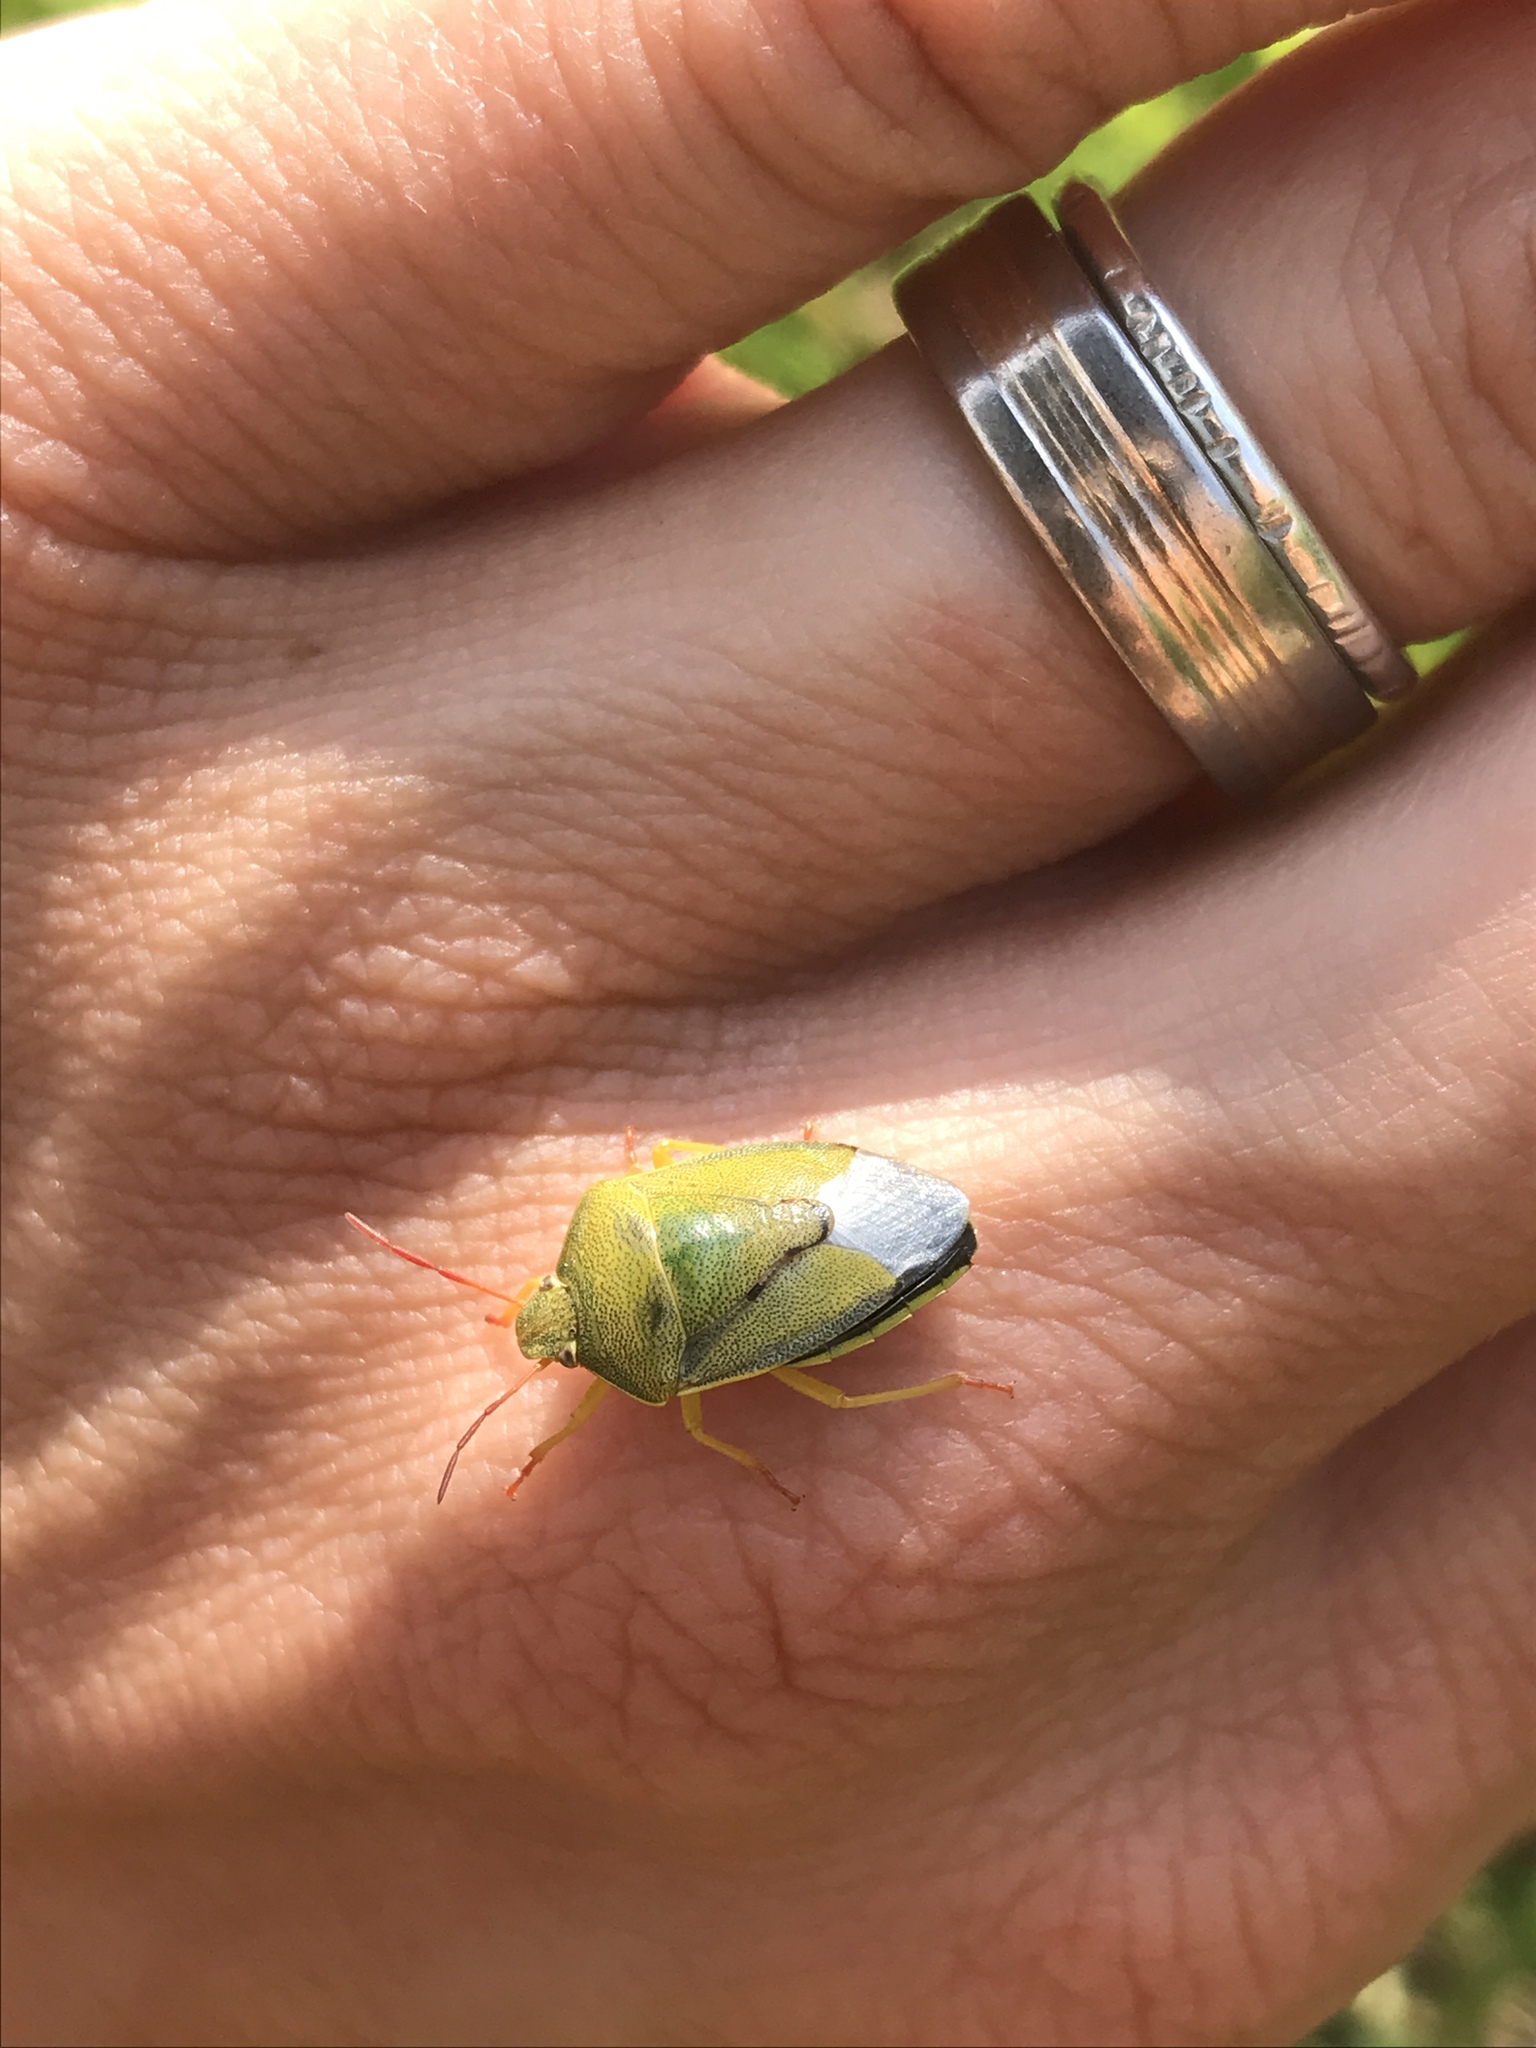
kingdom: Animalia
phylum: Arthropoda
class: Insecta
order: Hemiptera
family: Pentatomidae
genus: Piezodorus
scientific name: Piezodorus lituratus
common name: Stink bug
